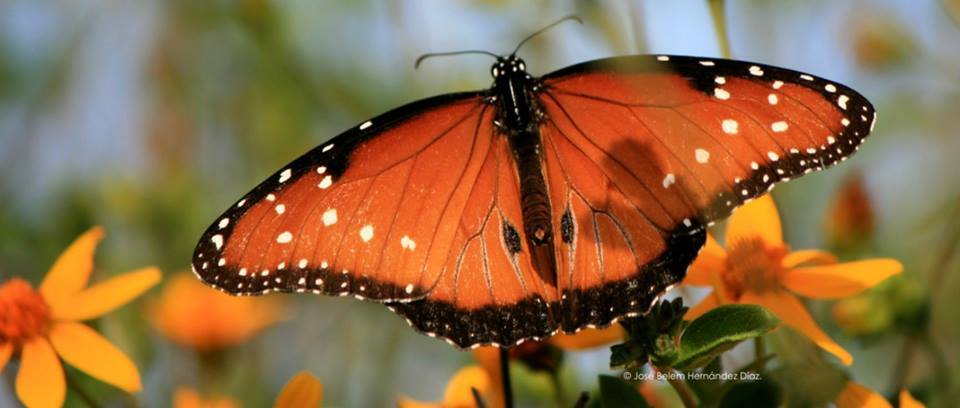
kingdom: Animalia
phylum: Arthropoda
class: Insecta
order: Lepidoptera
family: Nymphalidae
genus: Danaus
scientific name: Danaus gilippus
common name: Queen
